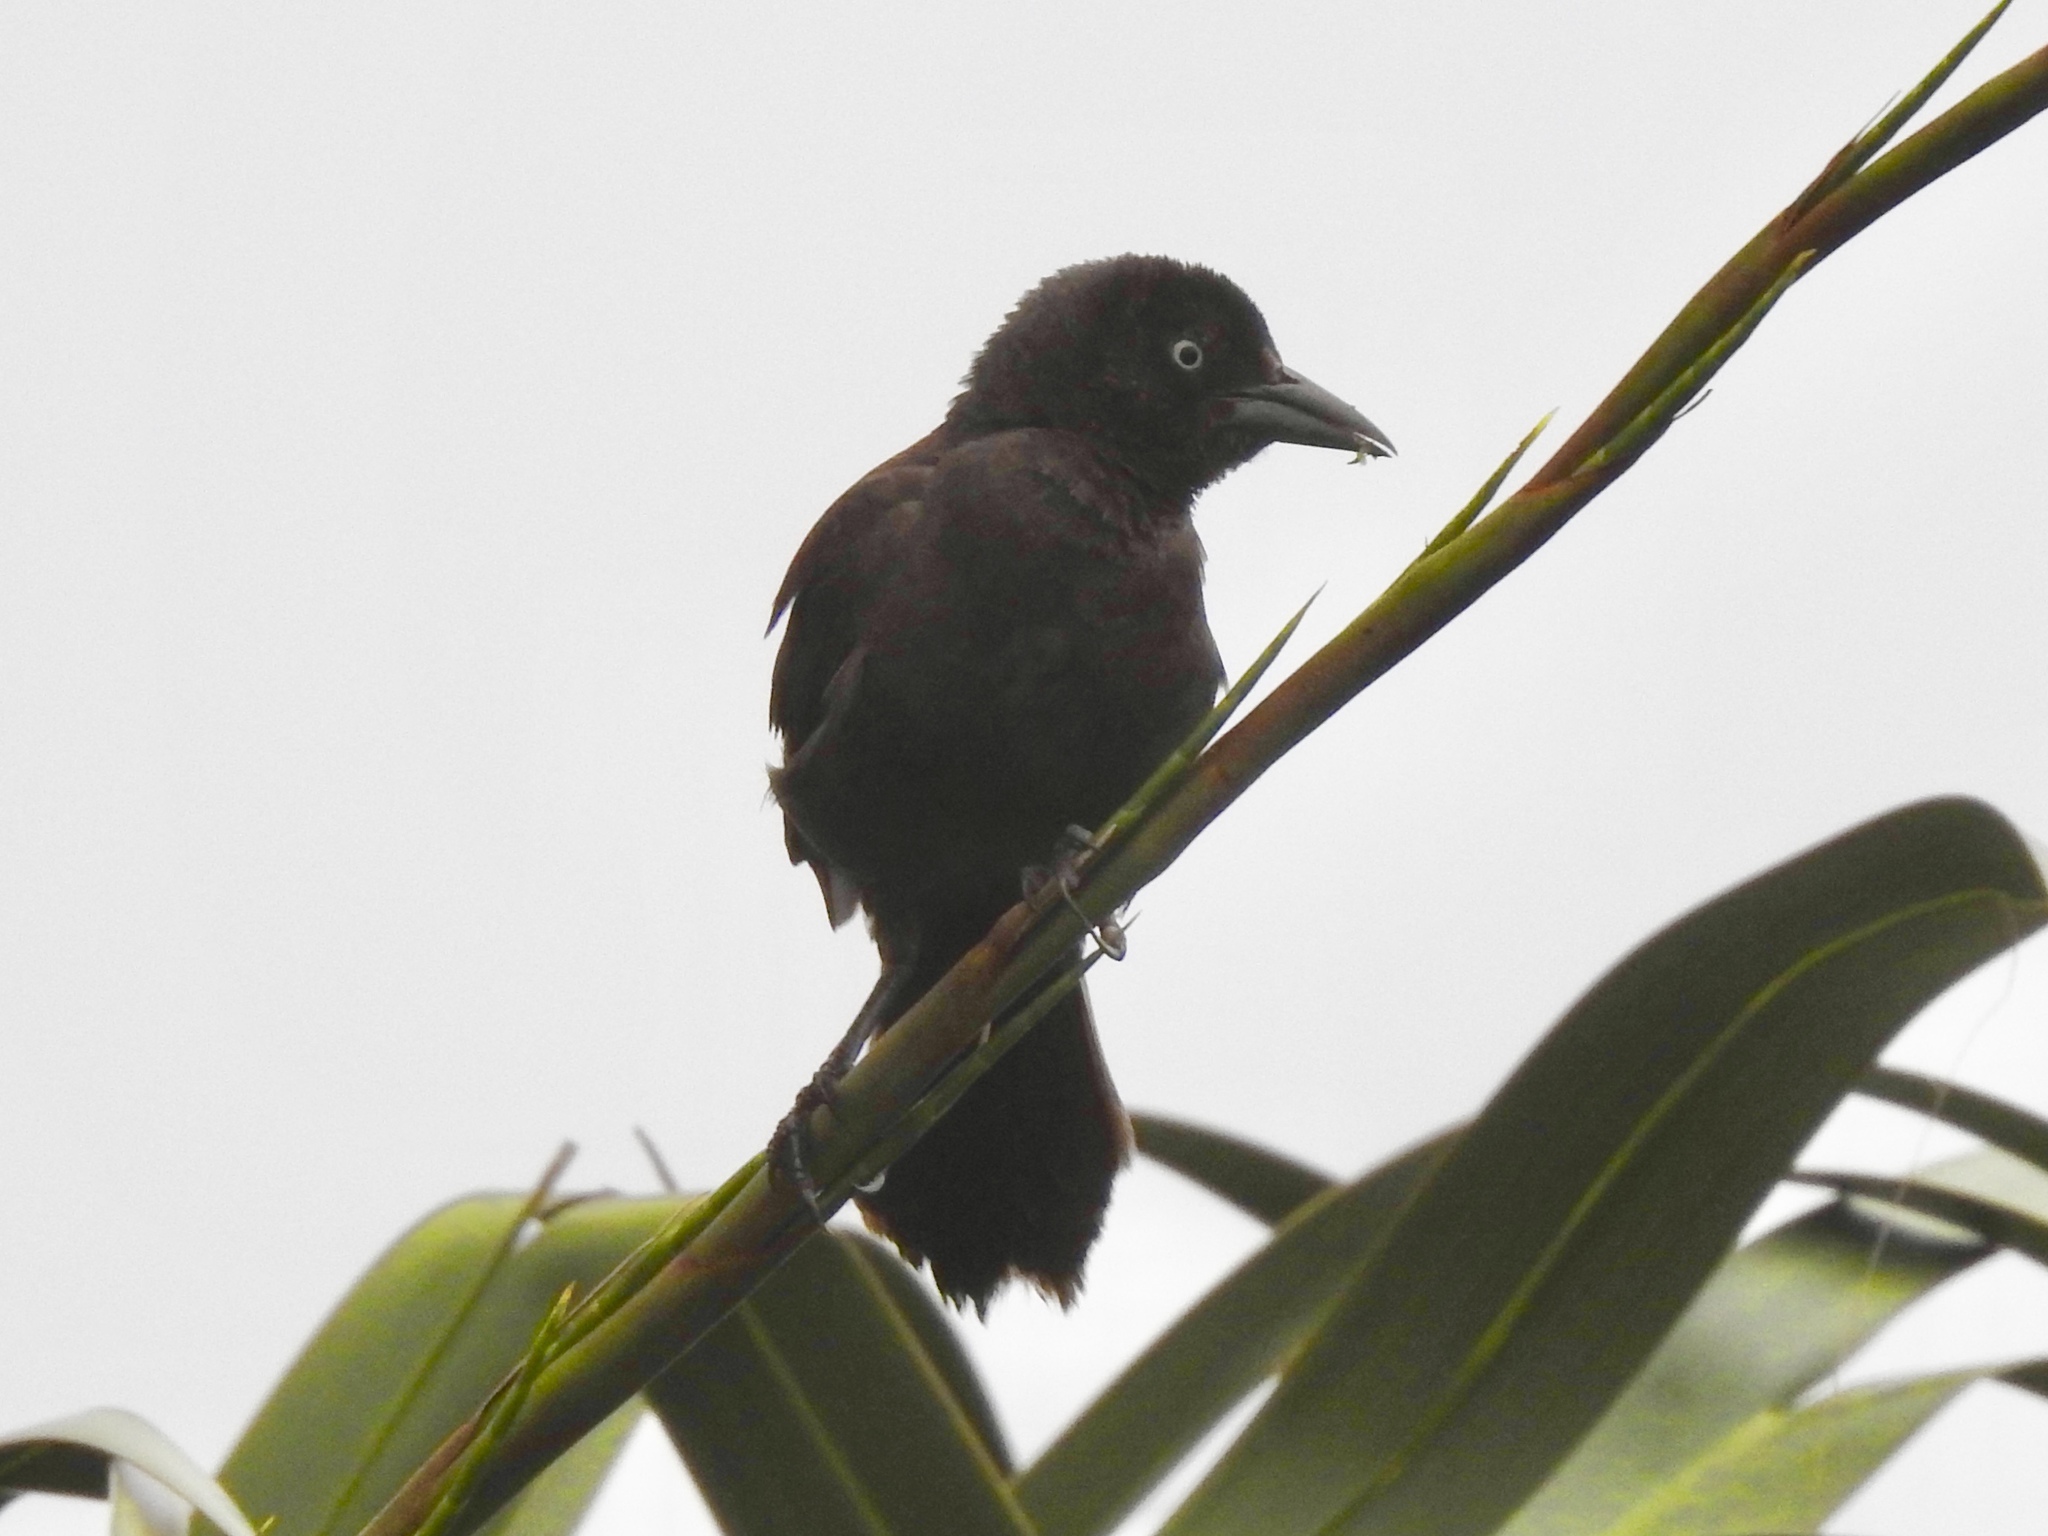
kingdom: Animalia
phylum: Chordata
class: Aves
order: Passeriformes
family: Icteridae
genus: Quiscalus
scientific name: Quiscalus quiscula
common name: Common grackle
